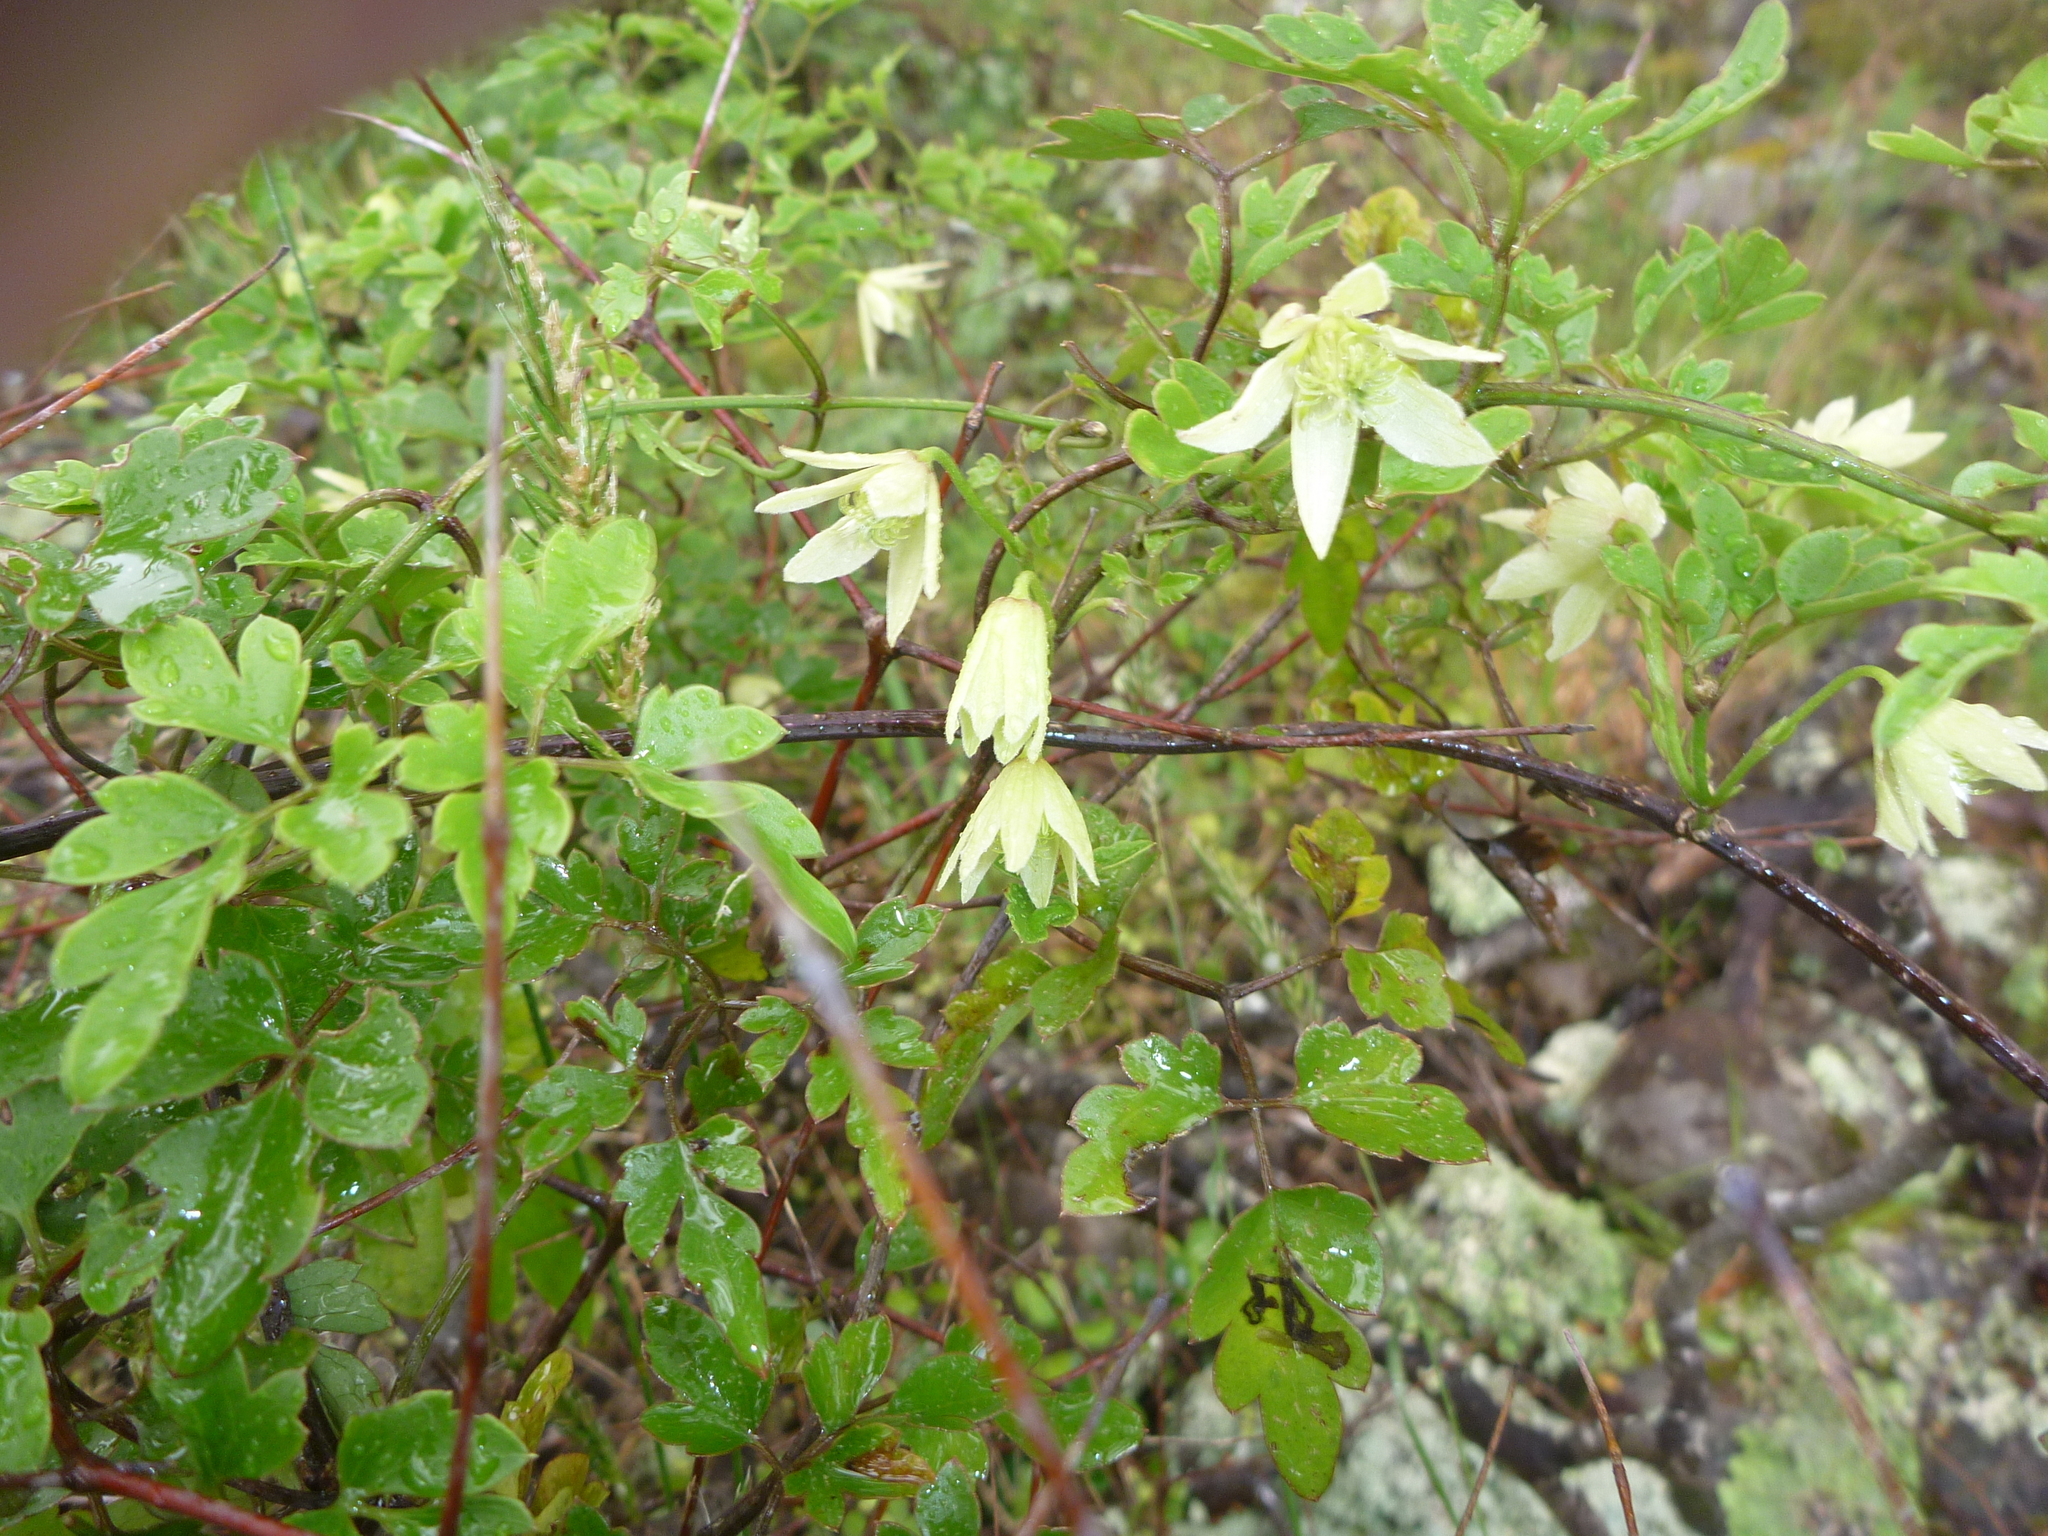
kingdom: Plantae
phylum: Tracheophyta
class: Magnoliopsida
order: Ranunculales
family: Ranunculaceae
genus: Clematis
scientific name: Clematis forsteri
